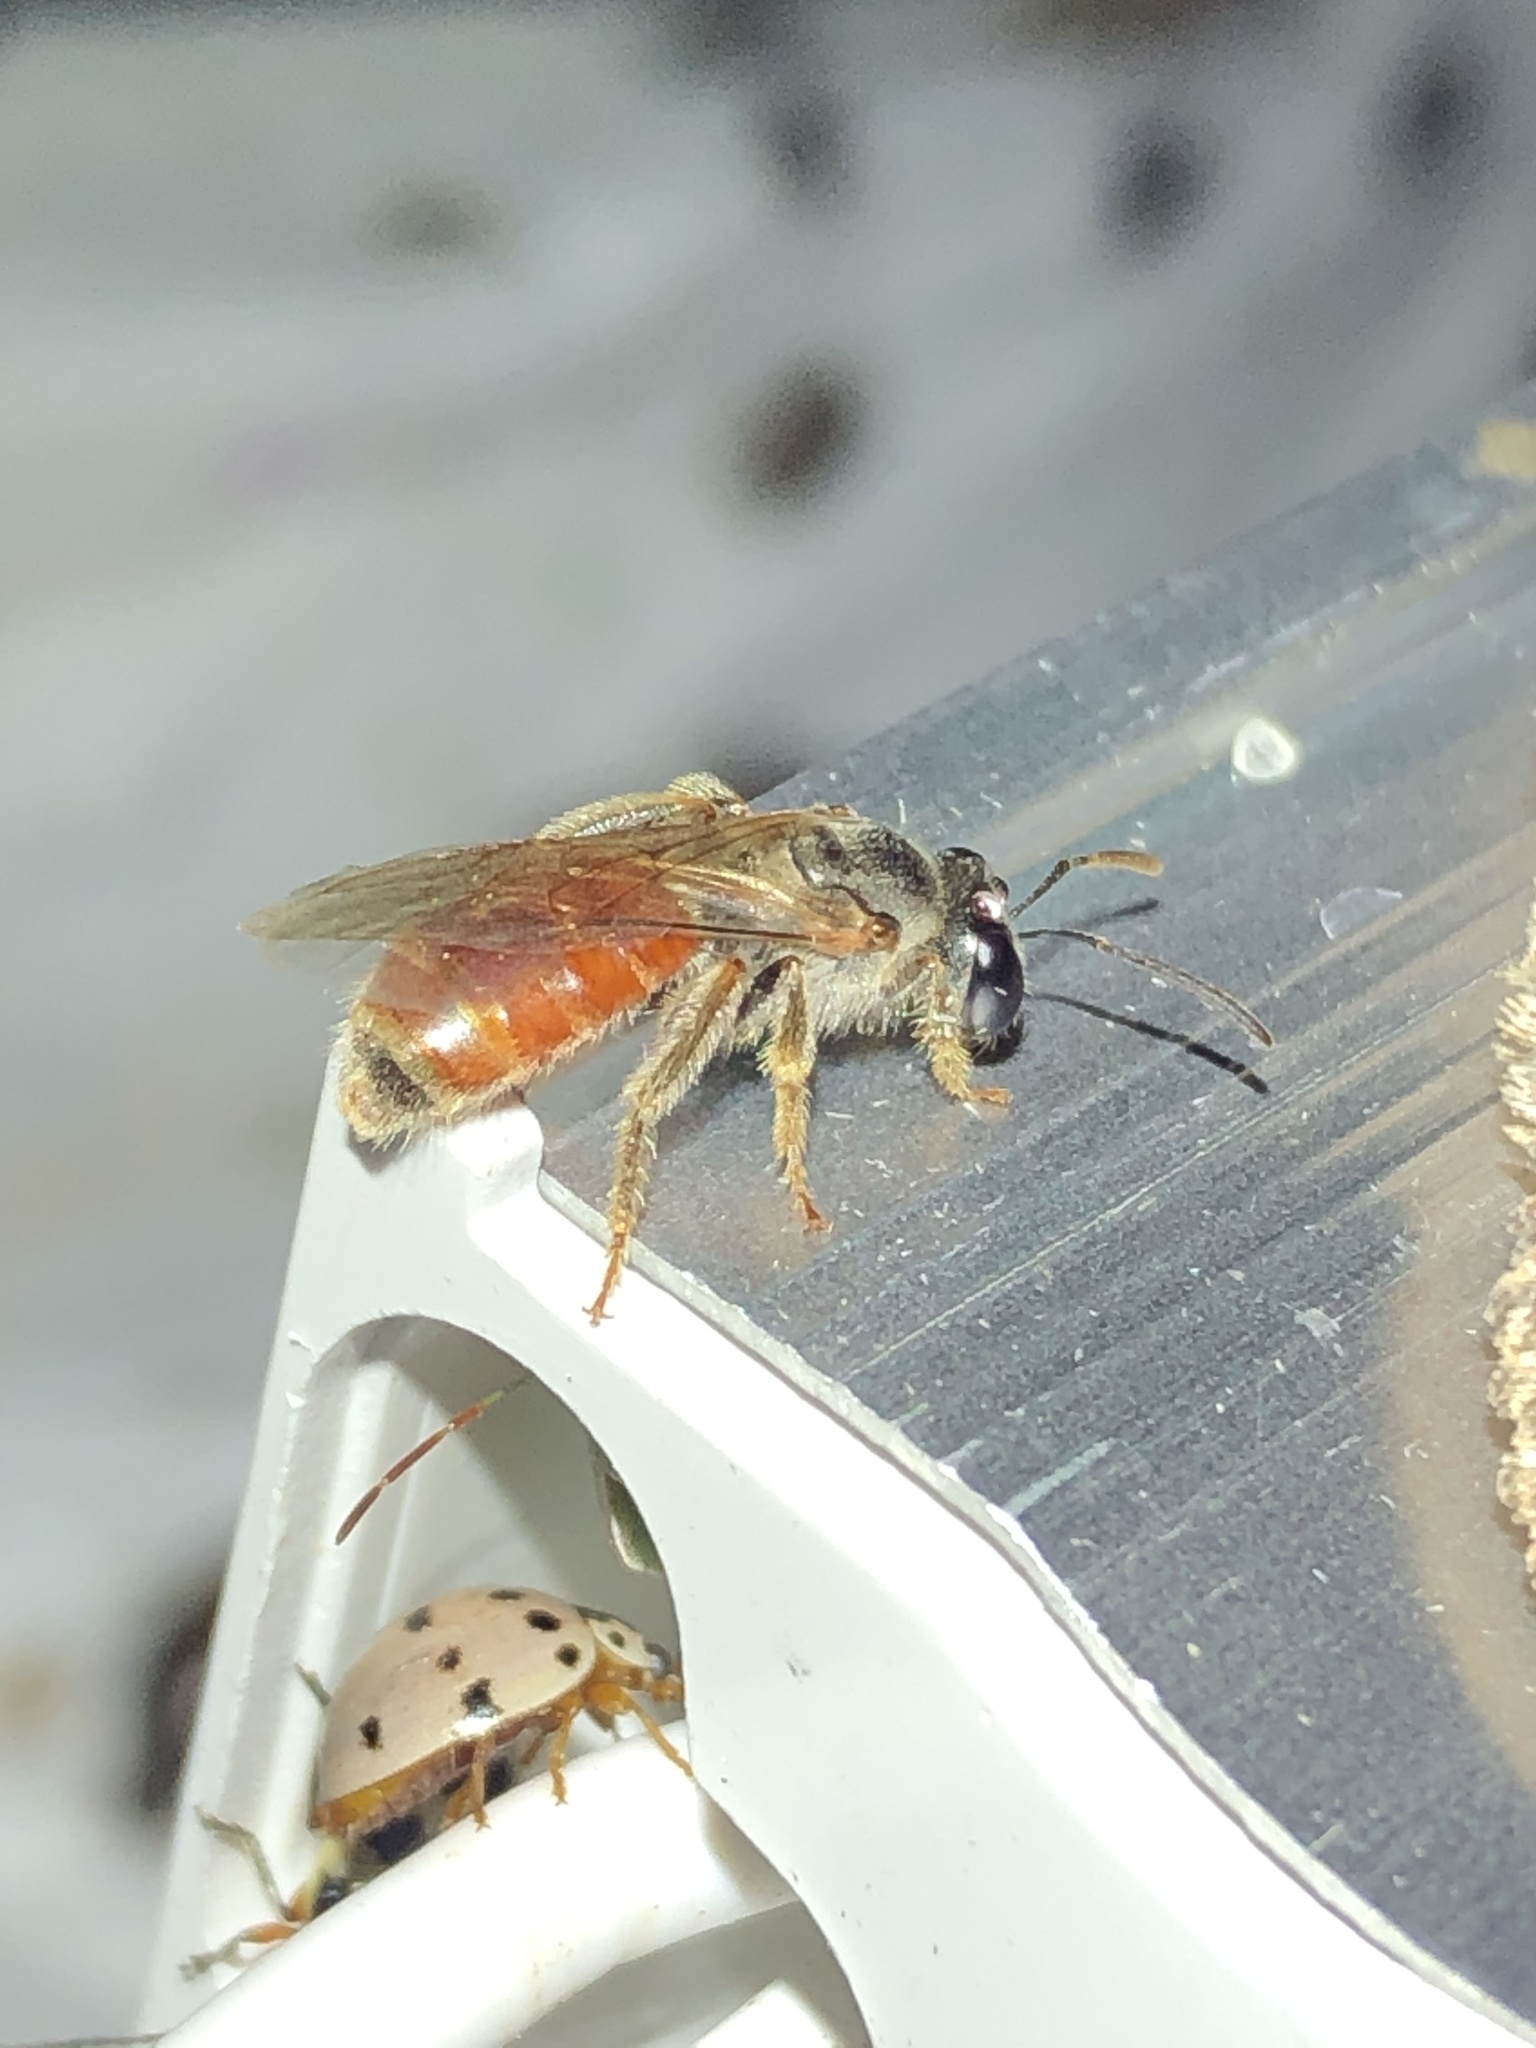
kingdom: Animalia
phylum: Arthropoda
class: Insecta
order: Hymenoptera
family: Halictidae
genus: Sphecodogastra
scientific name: Sphecodogastra
